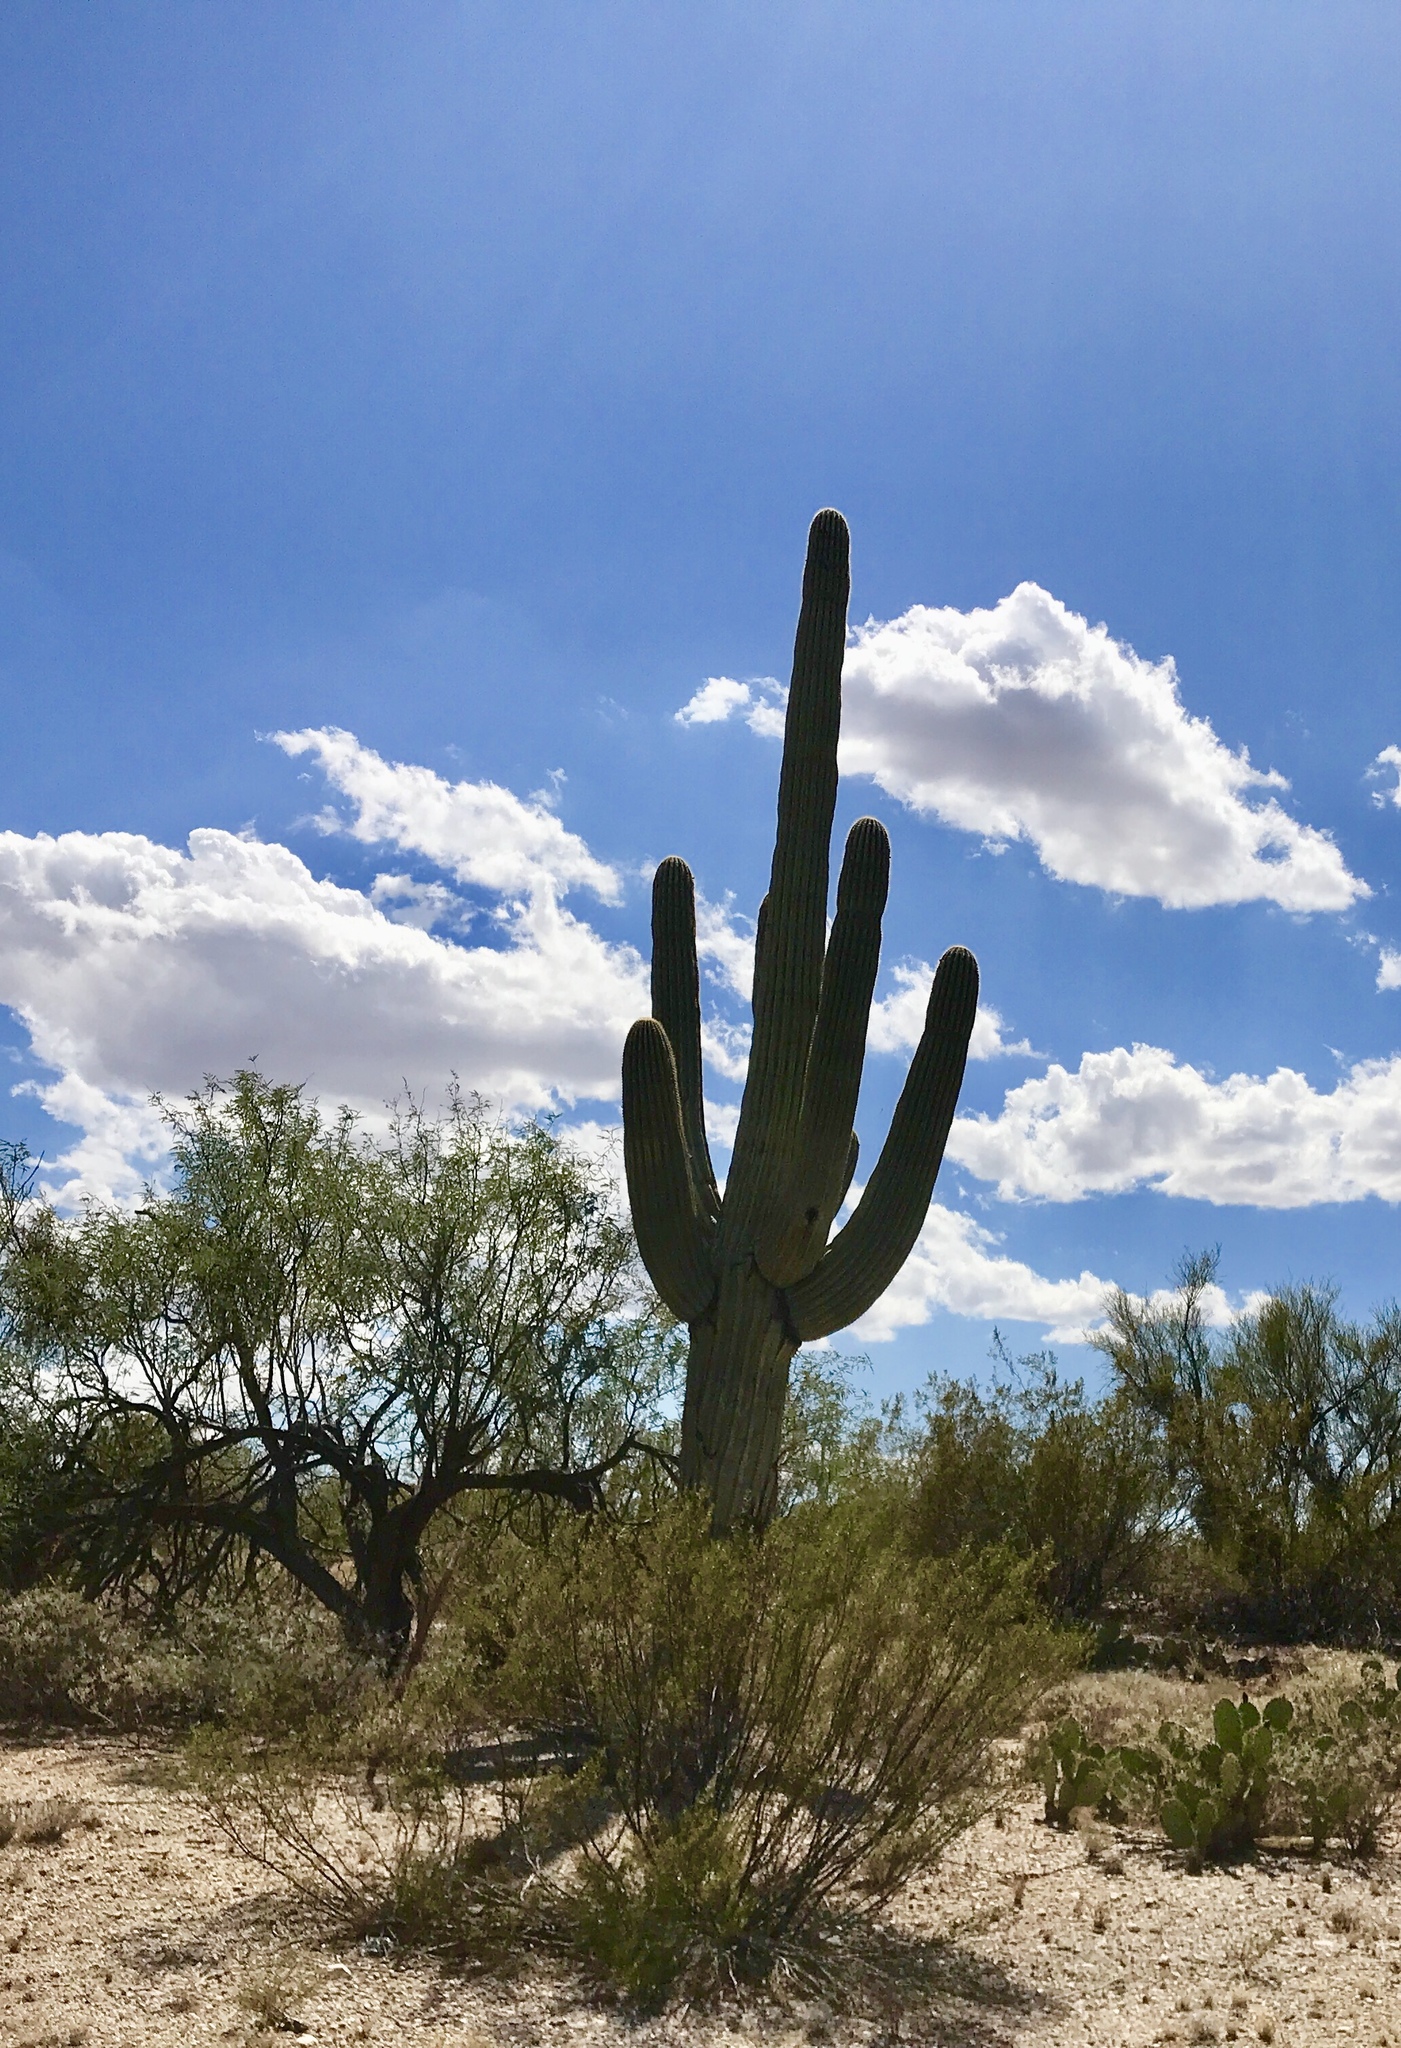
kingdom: Plantae
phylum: Tracheophyta
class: Magnoliopsida
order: Caryophyllales
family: Cactaceae
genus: Carnegiea
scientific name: Carnegiea gigantea
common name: Saguaro
